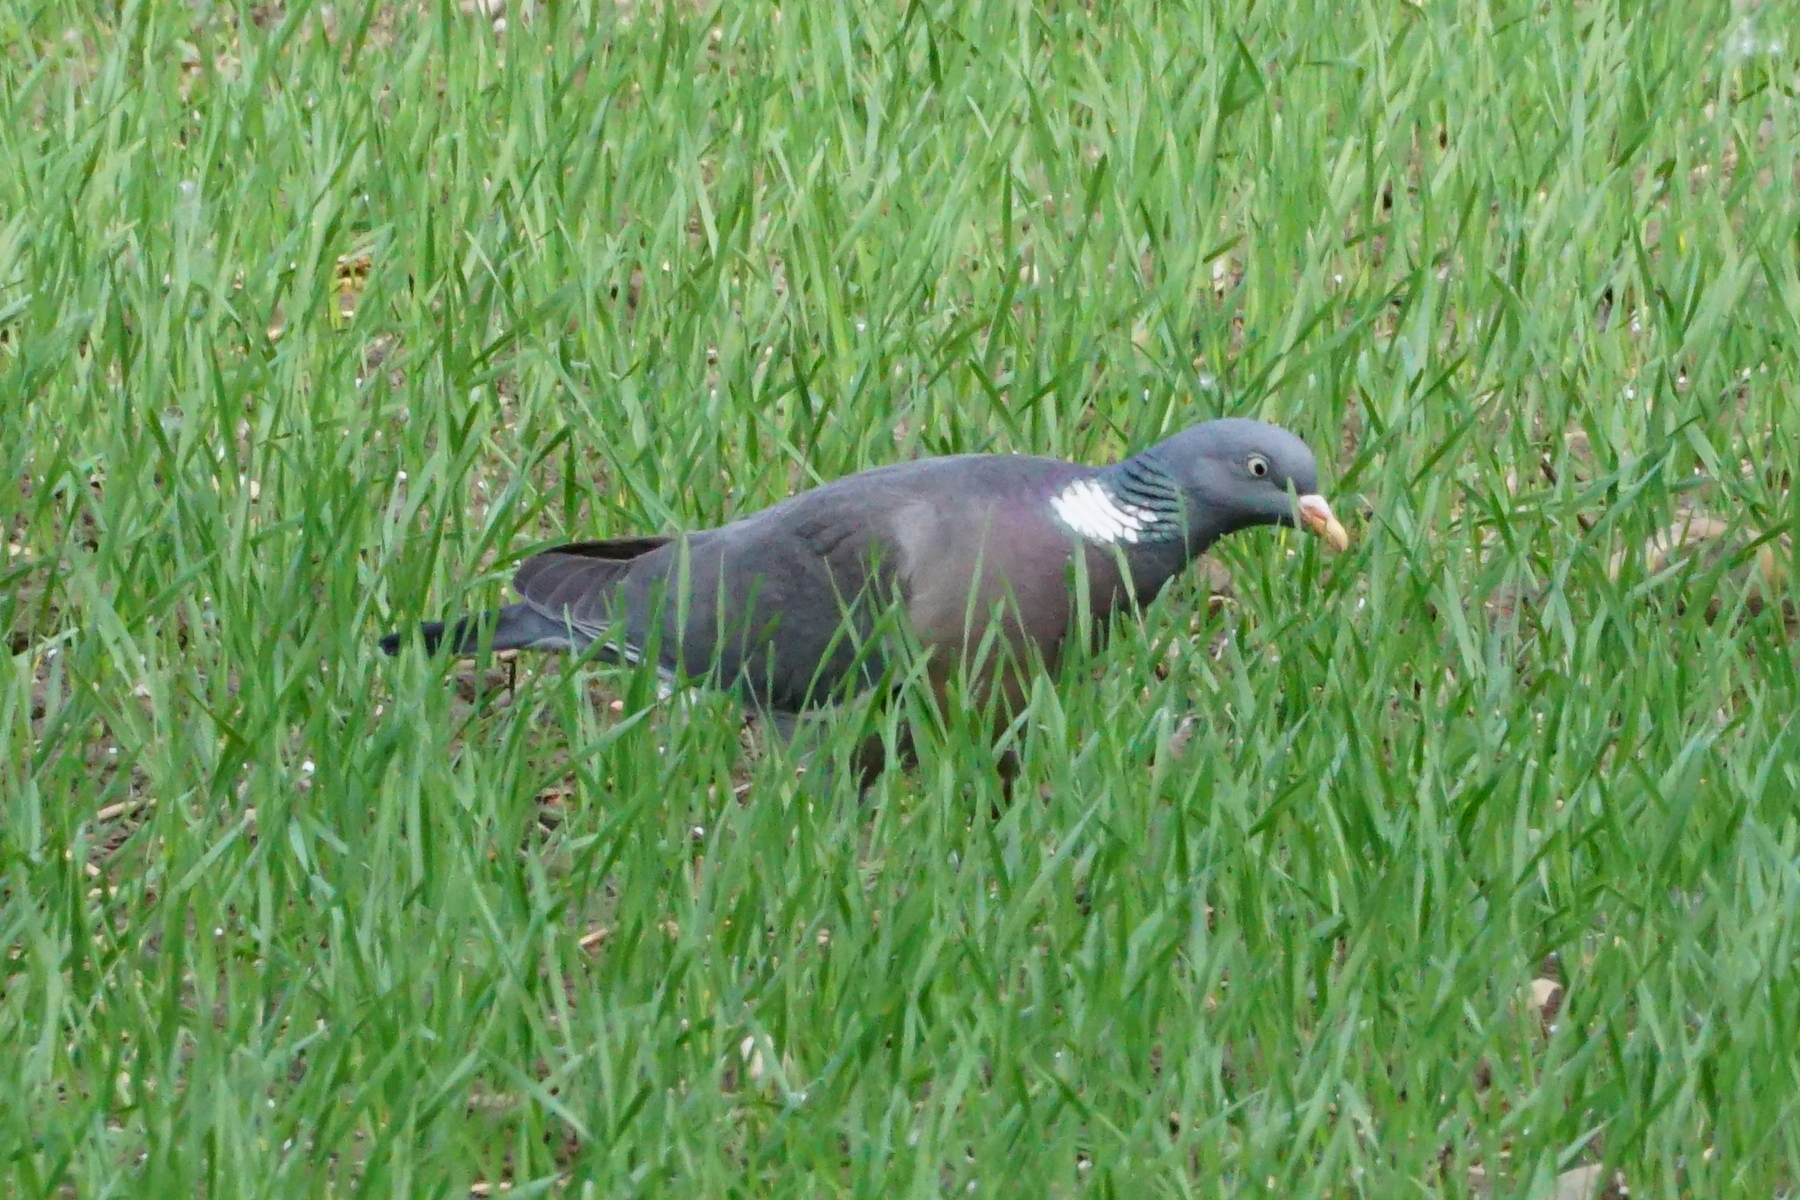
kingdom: Animalia
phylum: Chordata
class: Aves
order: Columbiformes
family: Columbidae
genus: Columba
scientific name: Columba palumbus
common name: Common wood pigeon
